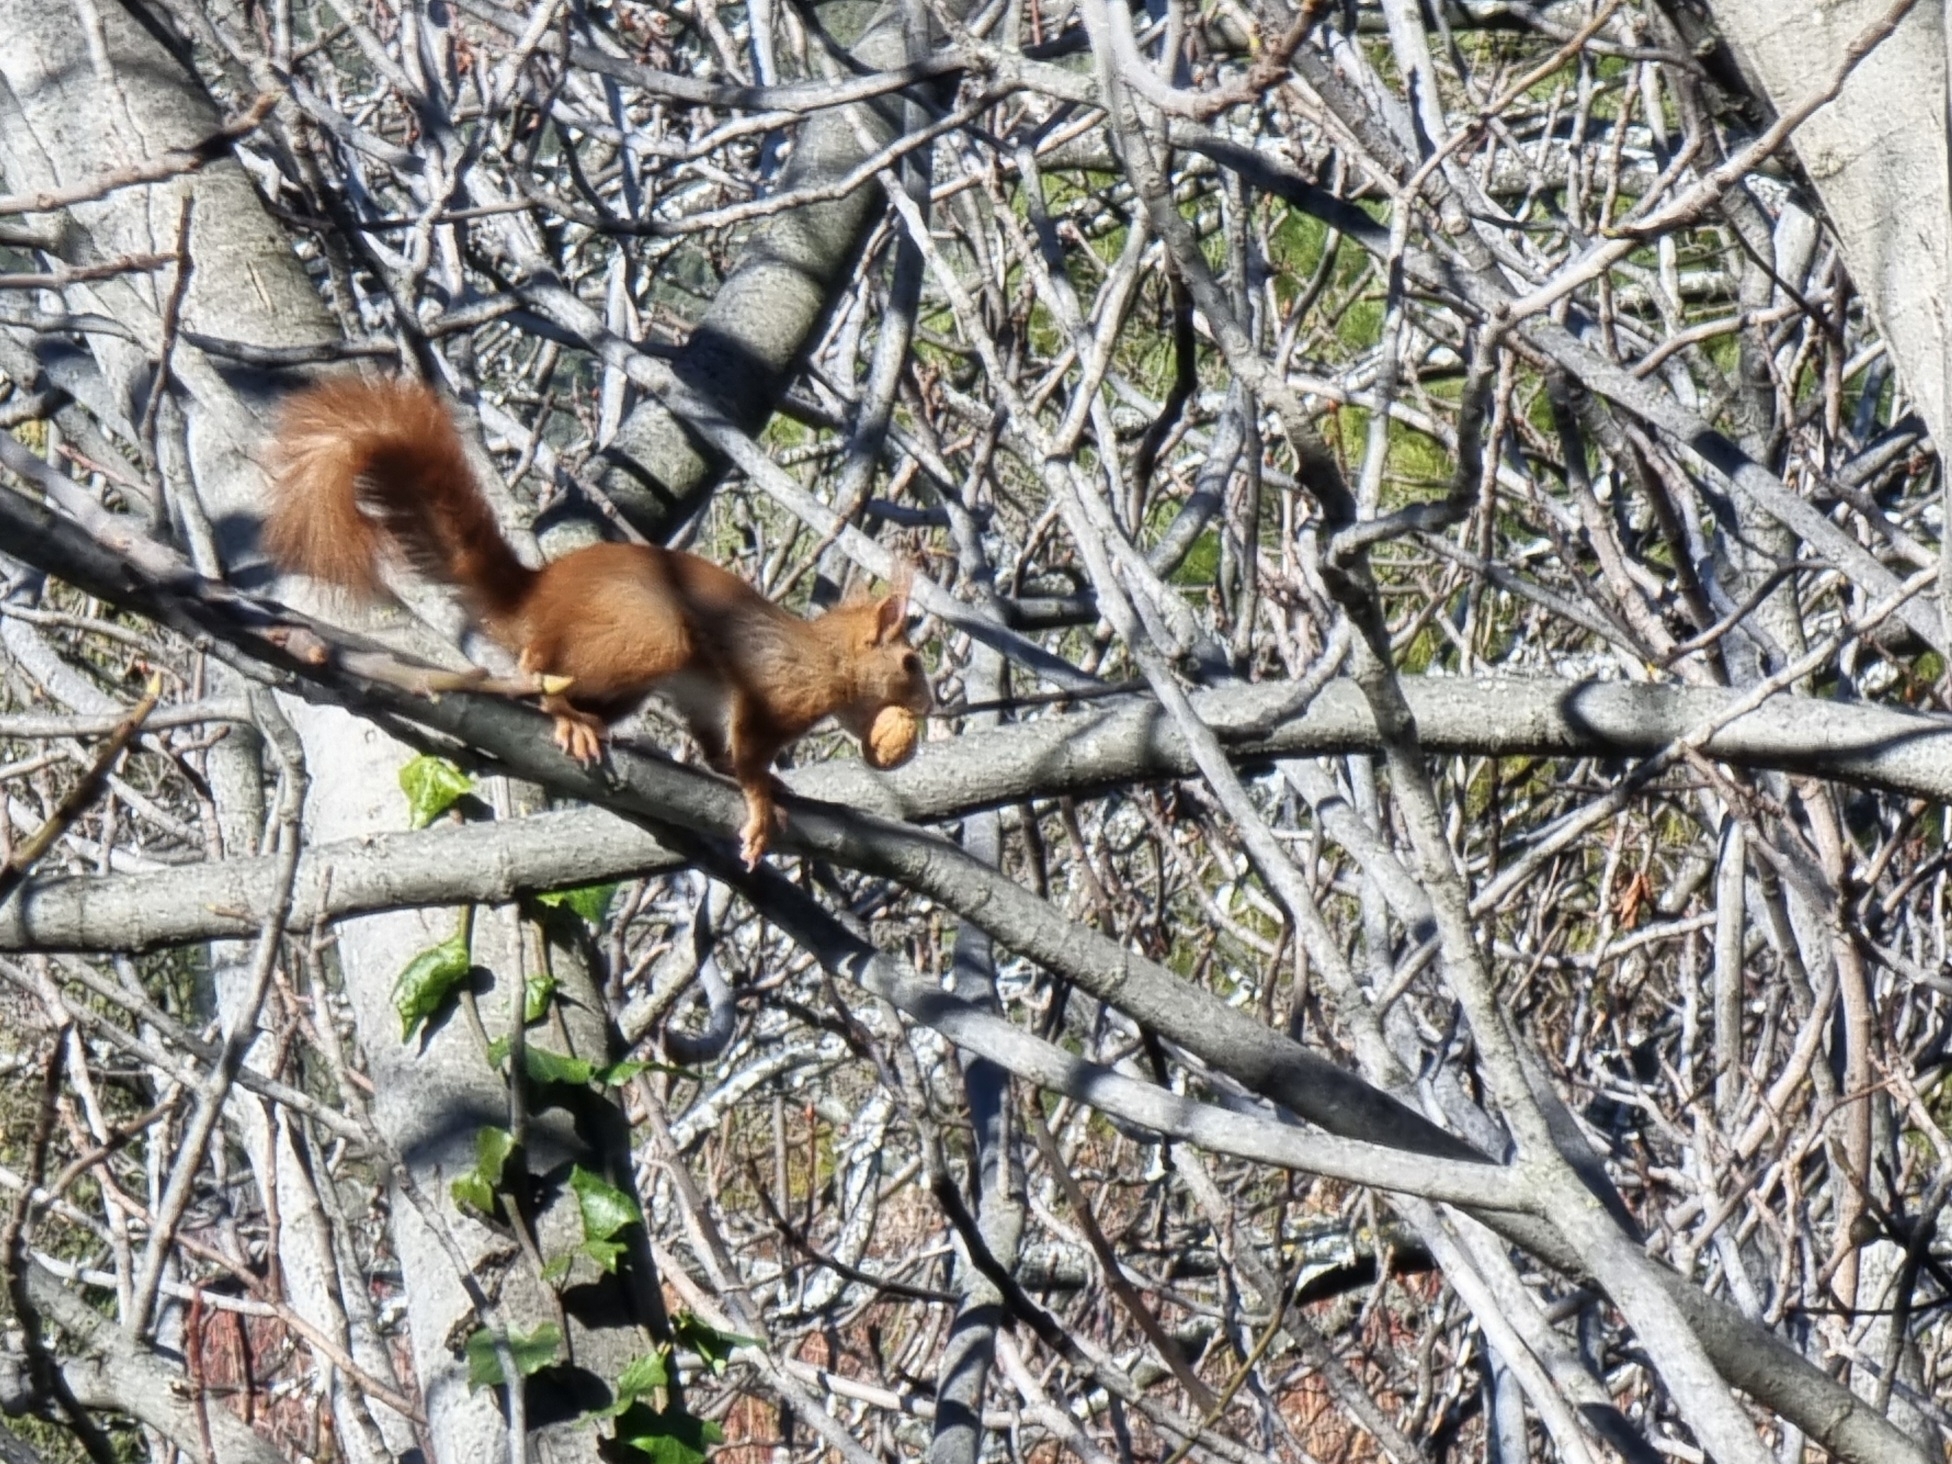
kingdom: Animalia
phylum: Chordata
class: Mammalia
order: Rodentia
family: Sciuridae
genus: Sciurus
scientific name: Sciurus vulgaris
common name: Eurasian red squirrel
